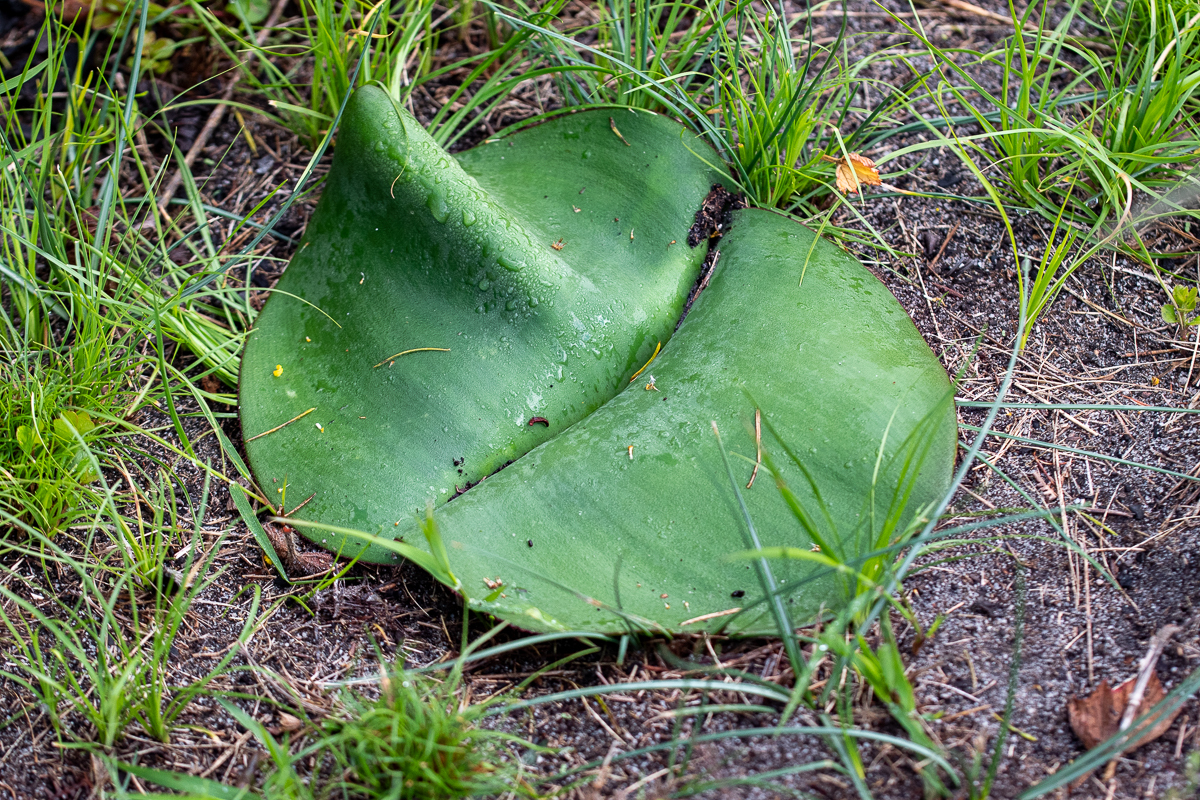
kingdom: Plantae
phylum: Tracheophyta
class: Liliopsida
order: Asparagales
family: Amaryllidaceae
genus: Haemanthus
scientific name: Haemanthus sanguineus
